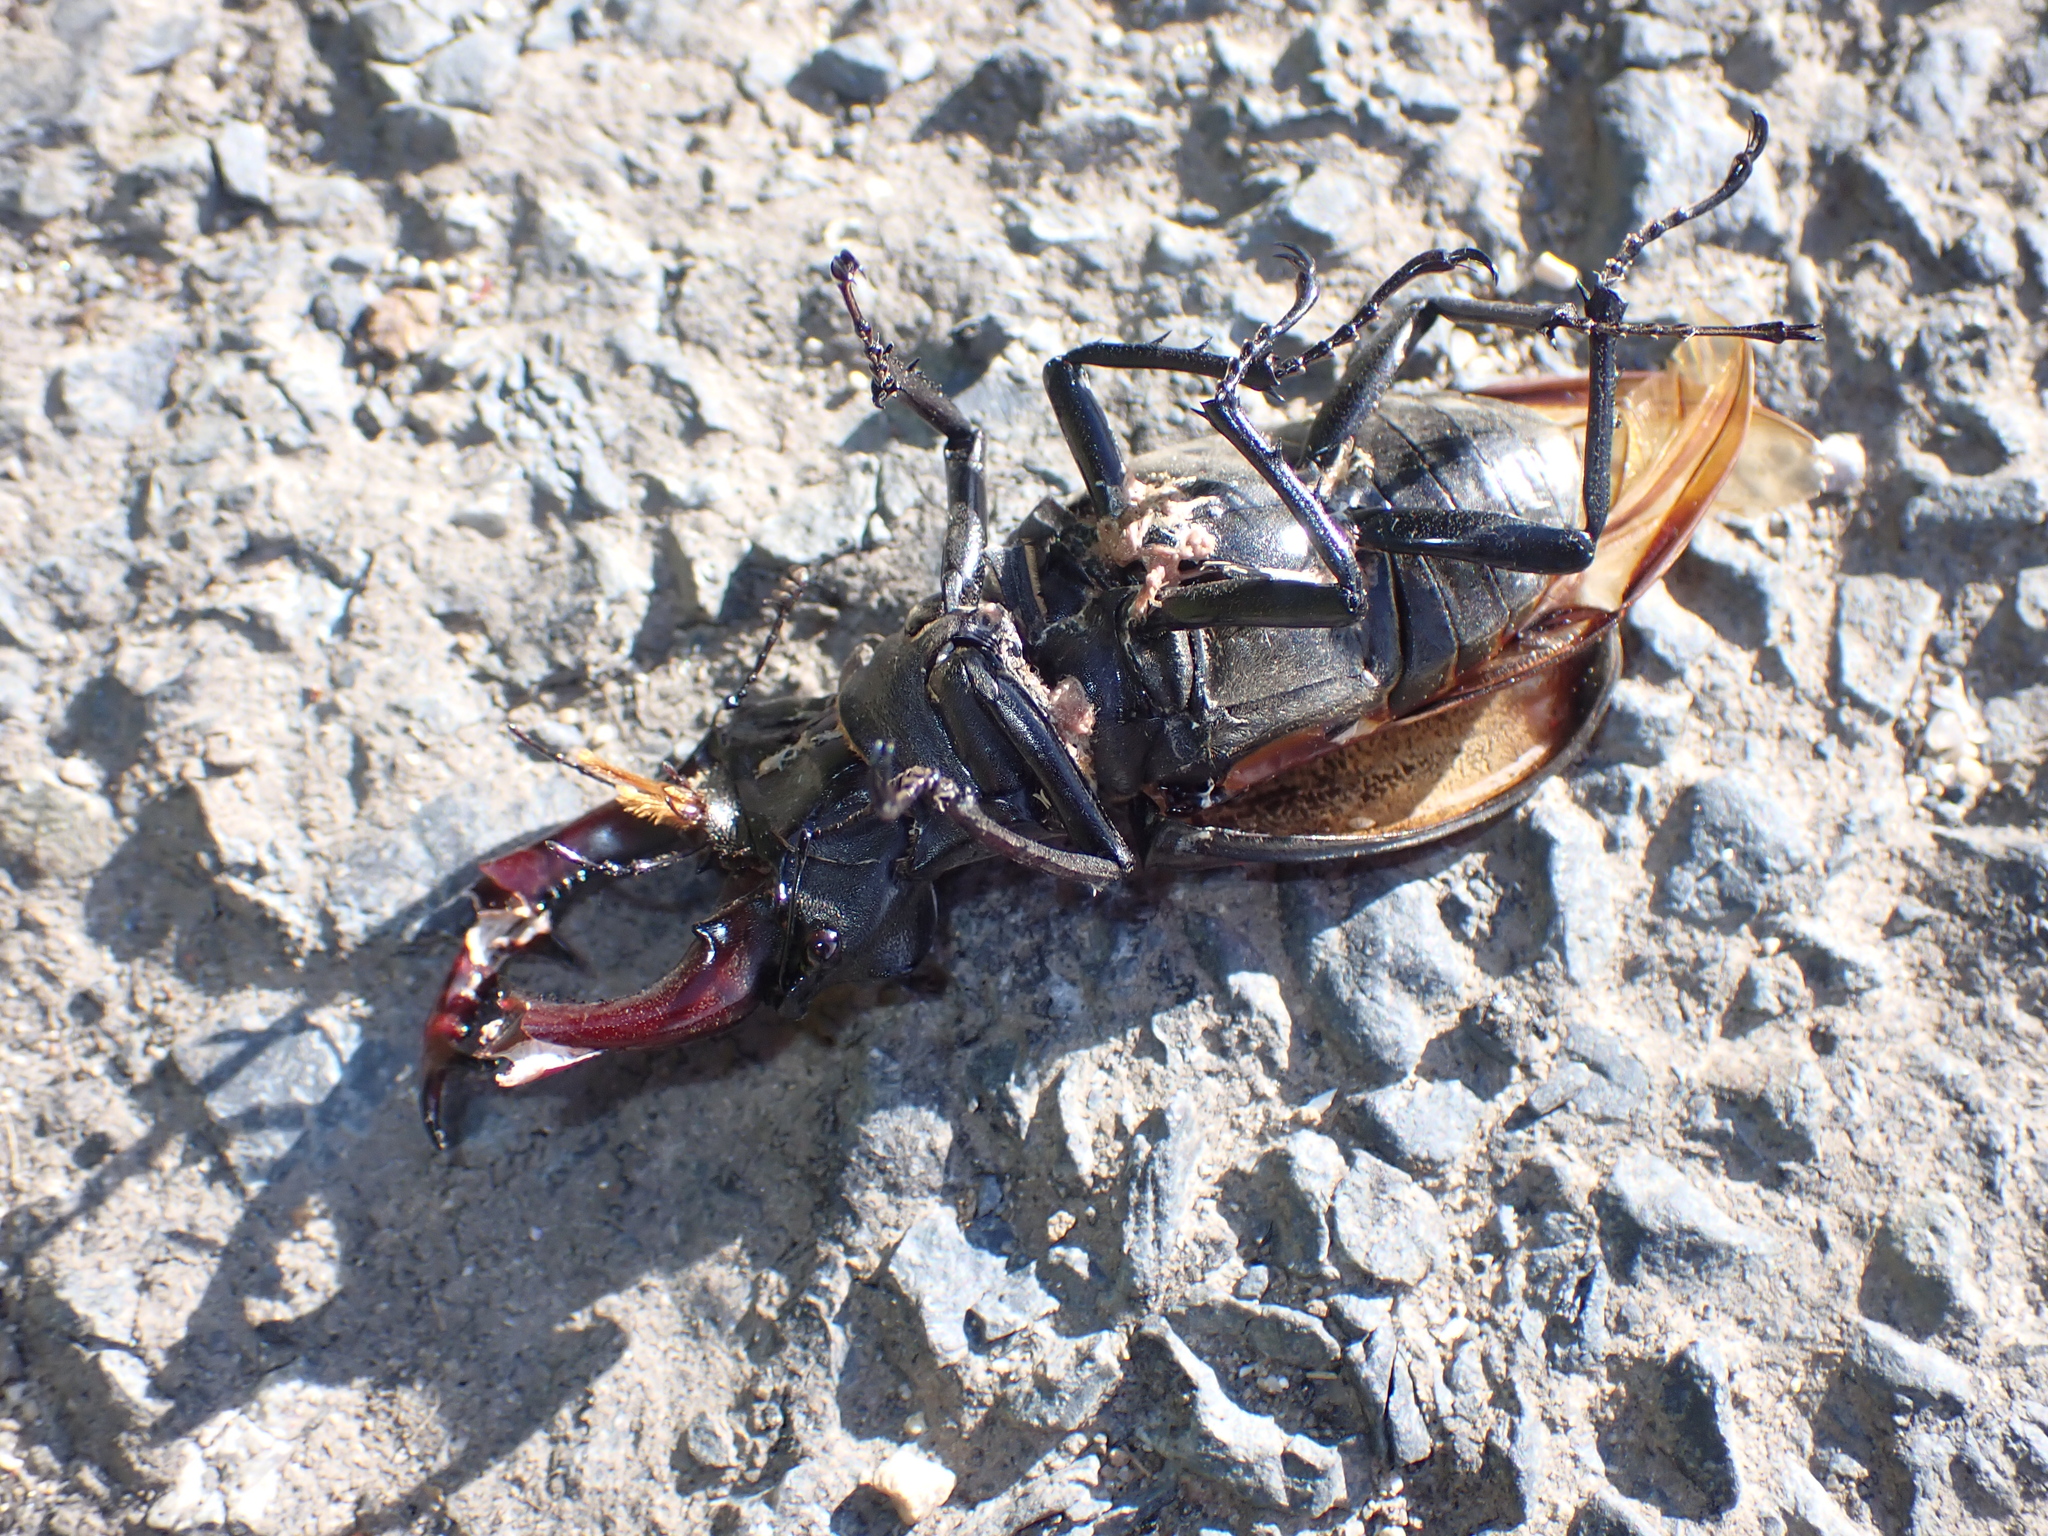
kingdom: Animalia
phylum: Arthropoda
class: Insecta
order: Coleoptera
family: Lucanidae
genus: Lucanus
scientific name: Lucanus cervus
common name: Stag beetle
